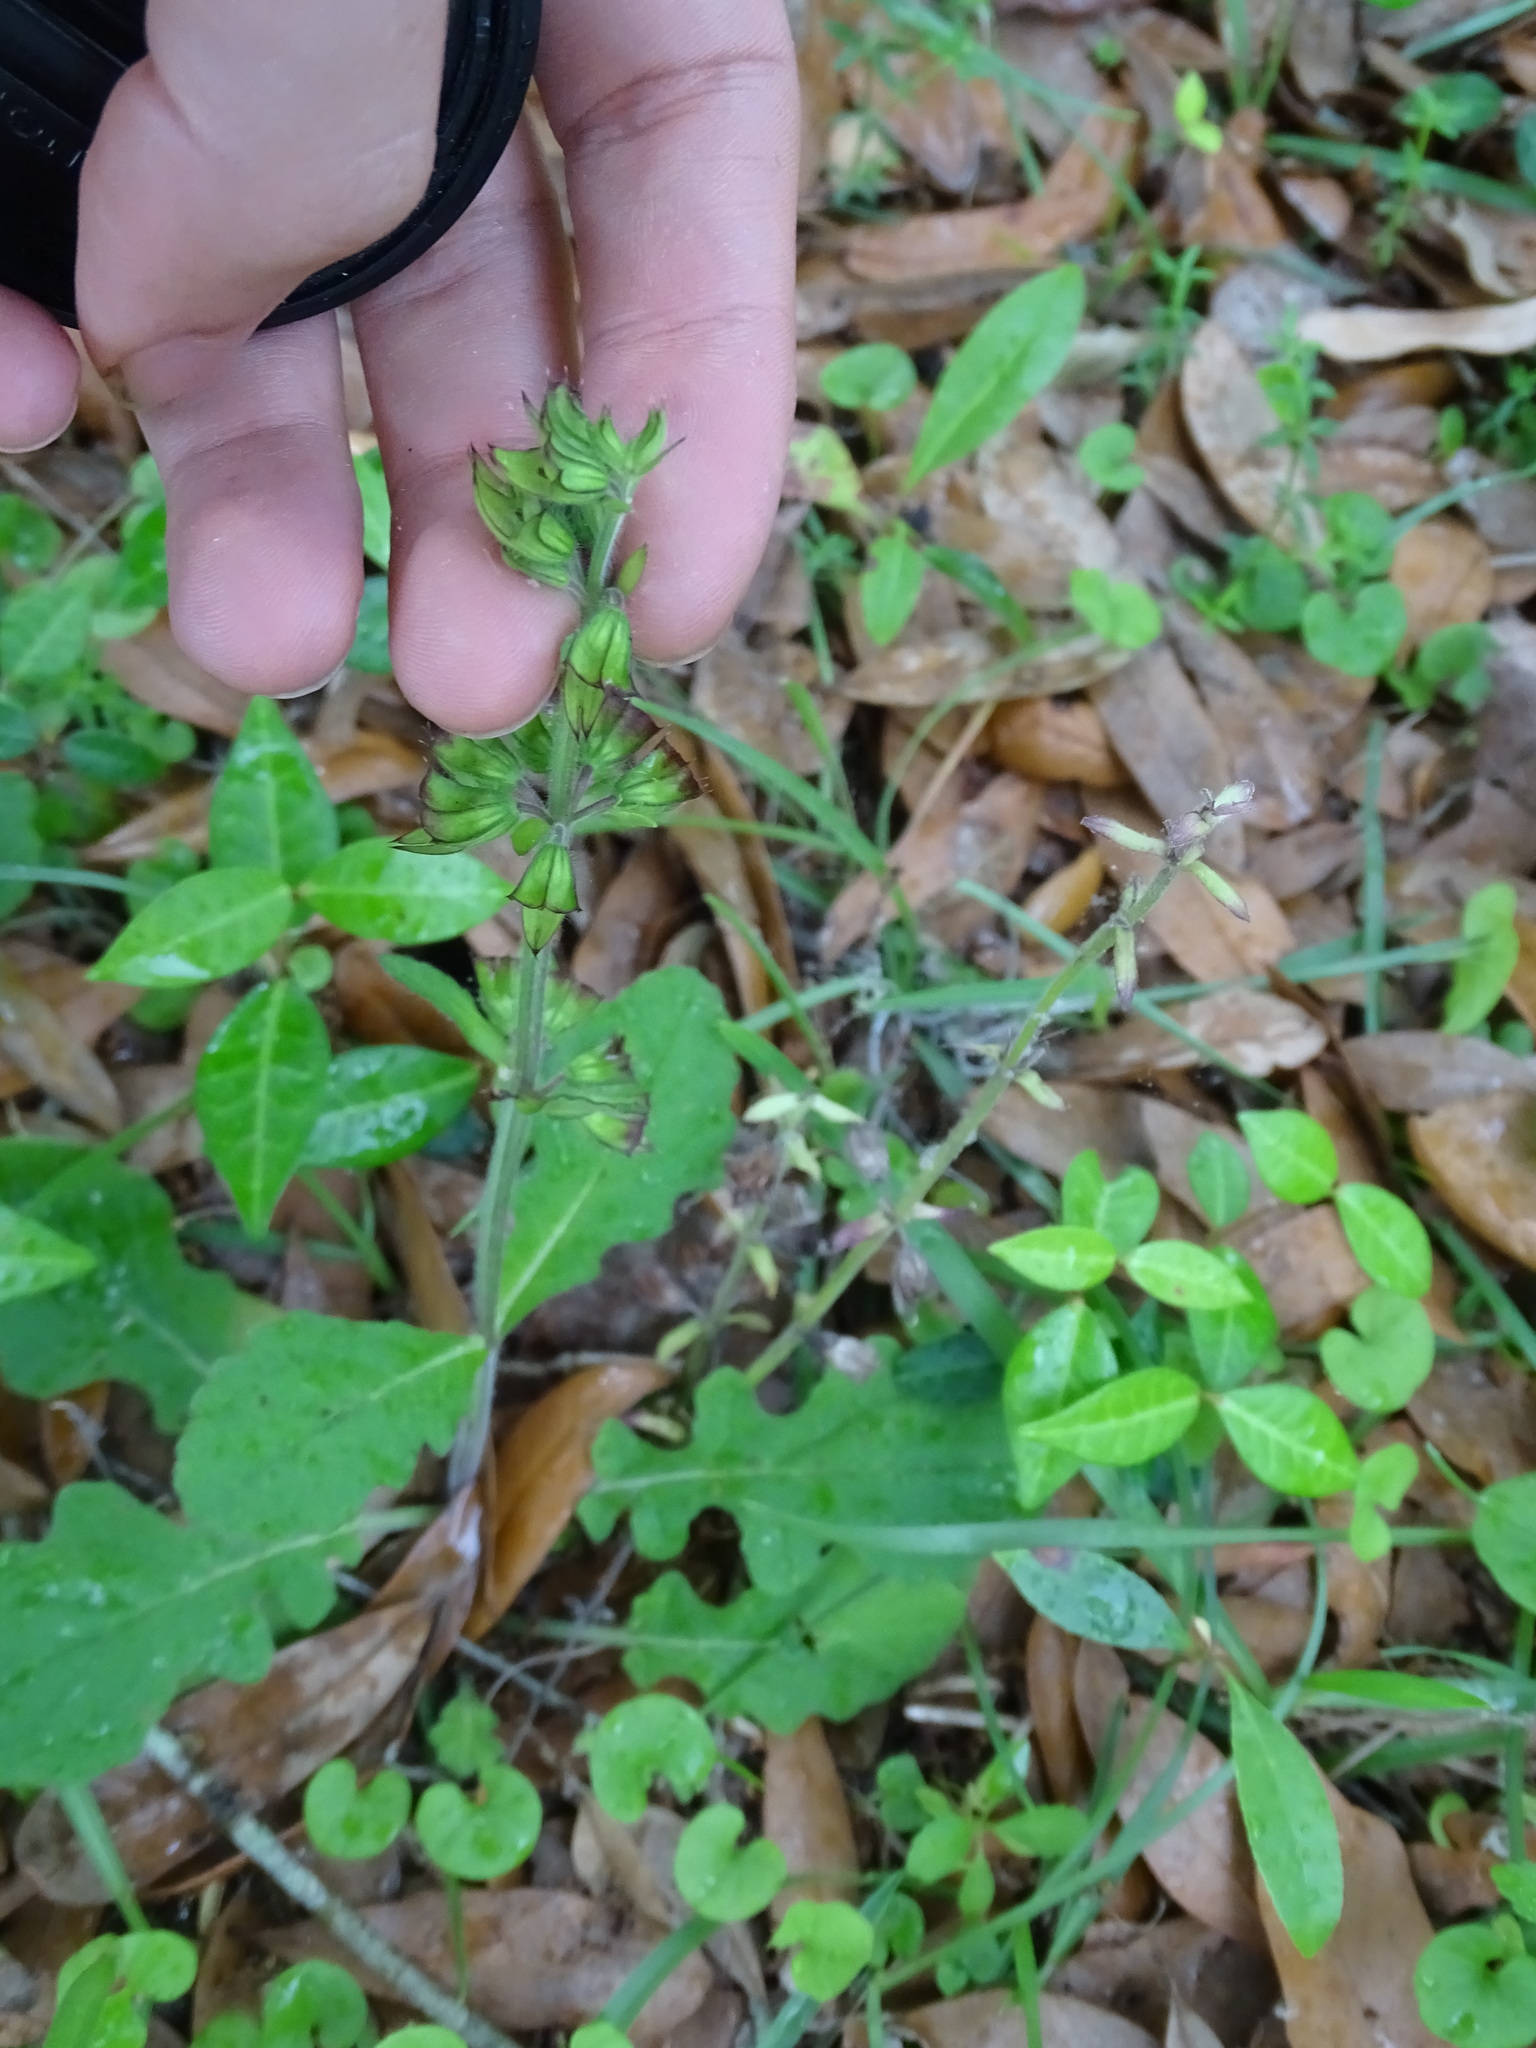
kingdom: Plantae
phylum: Tracheophyta
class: Magnoliopsida
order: Lamiales
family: Lamiaceae
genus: Salvia
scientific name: Salvia lyrata
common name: Cancerweed
